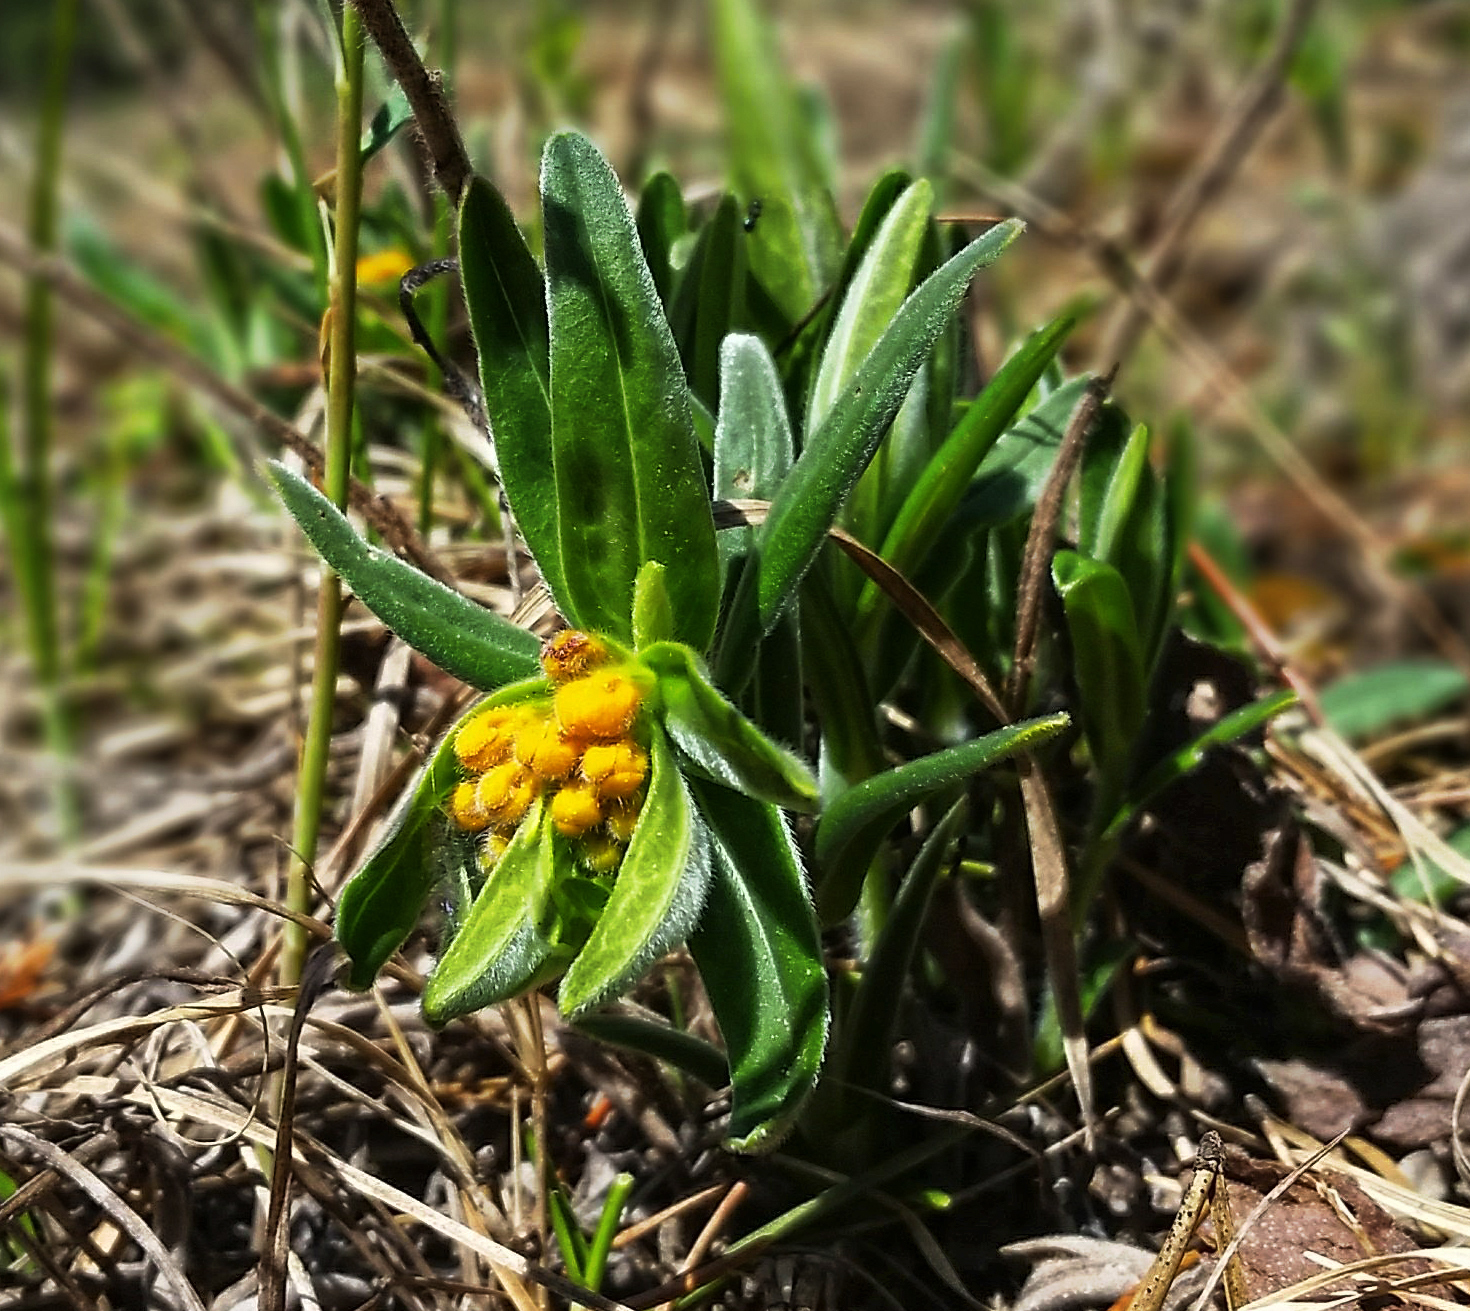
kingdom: Plantae
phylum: Tracheophyta
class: Magnoliopsida
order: Boraginales
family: Boraginaceae
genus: Lithospermum
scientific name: Lithospermum canescens
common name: Hoary puccoon
